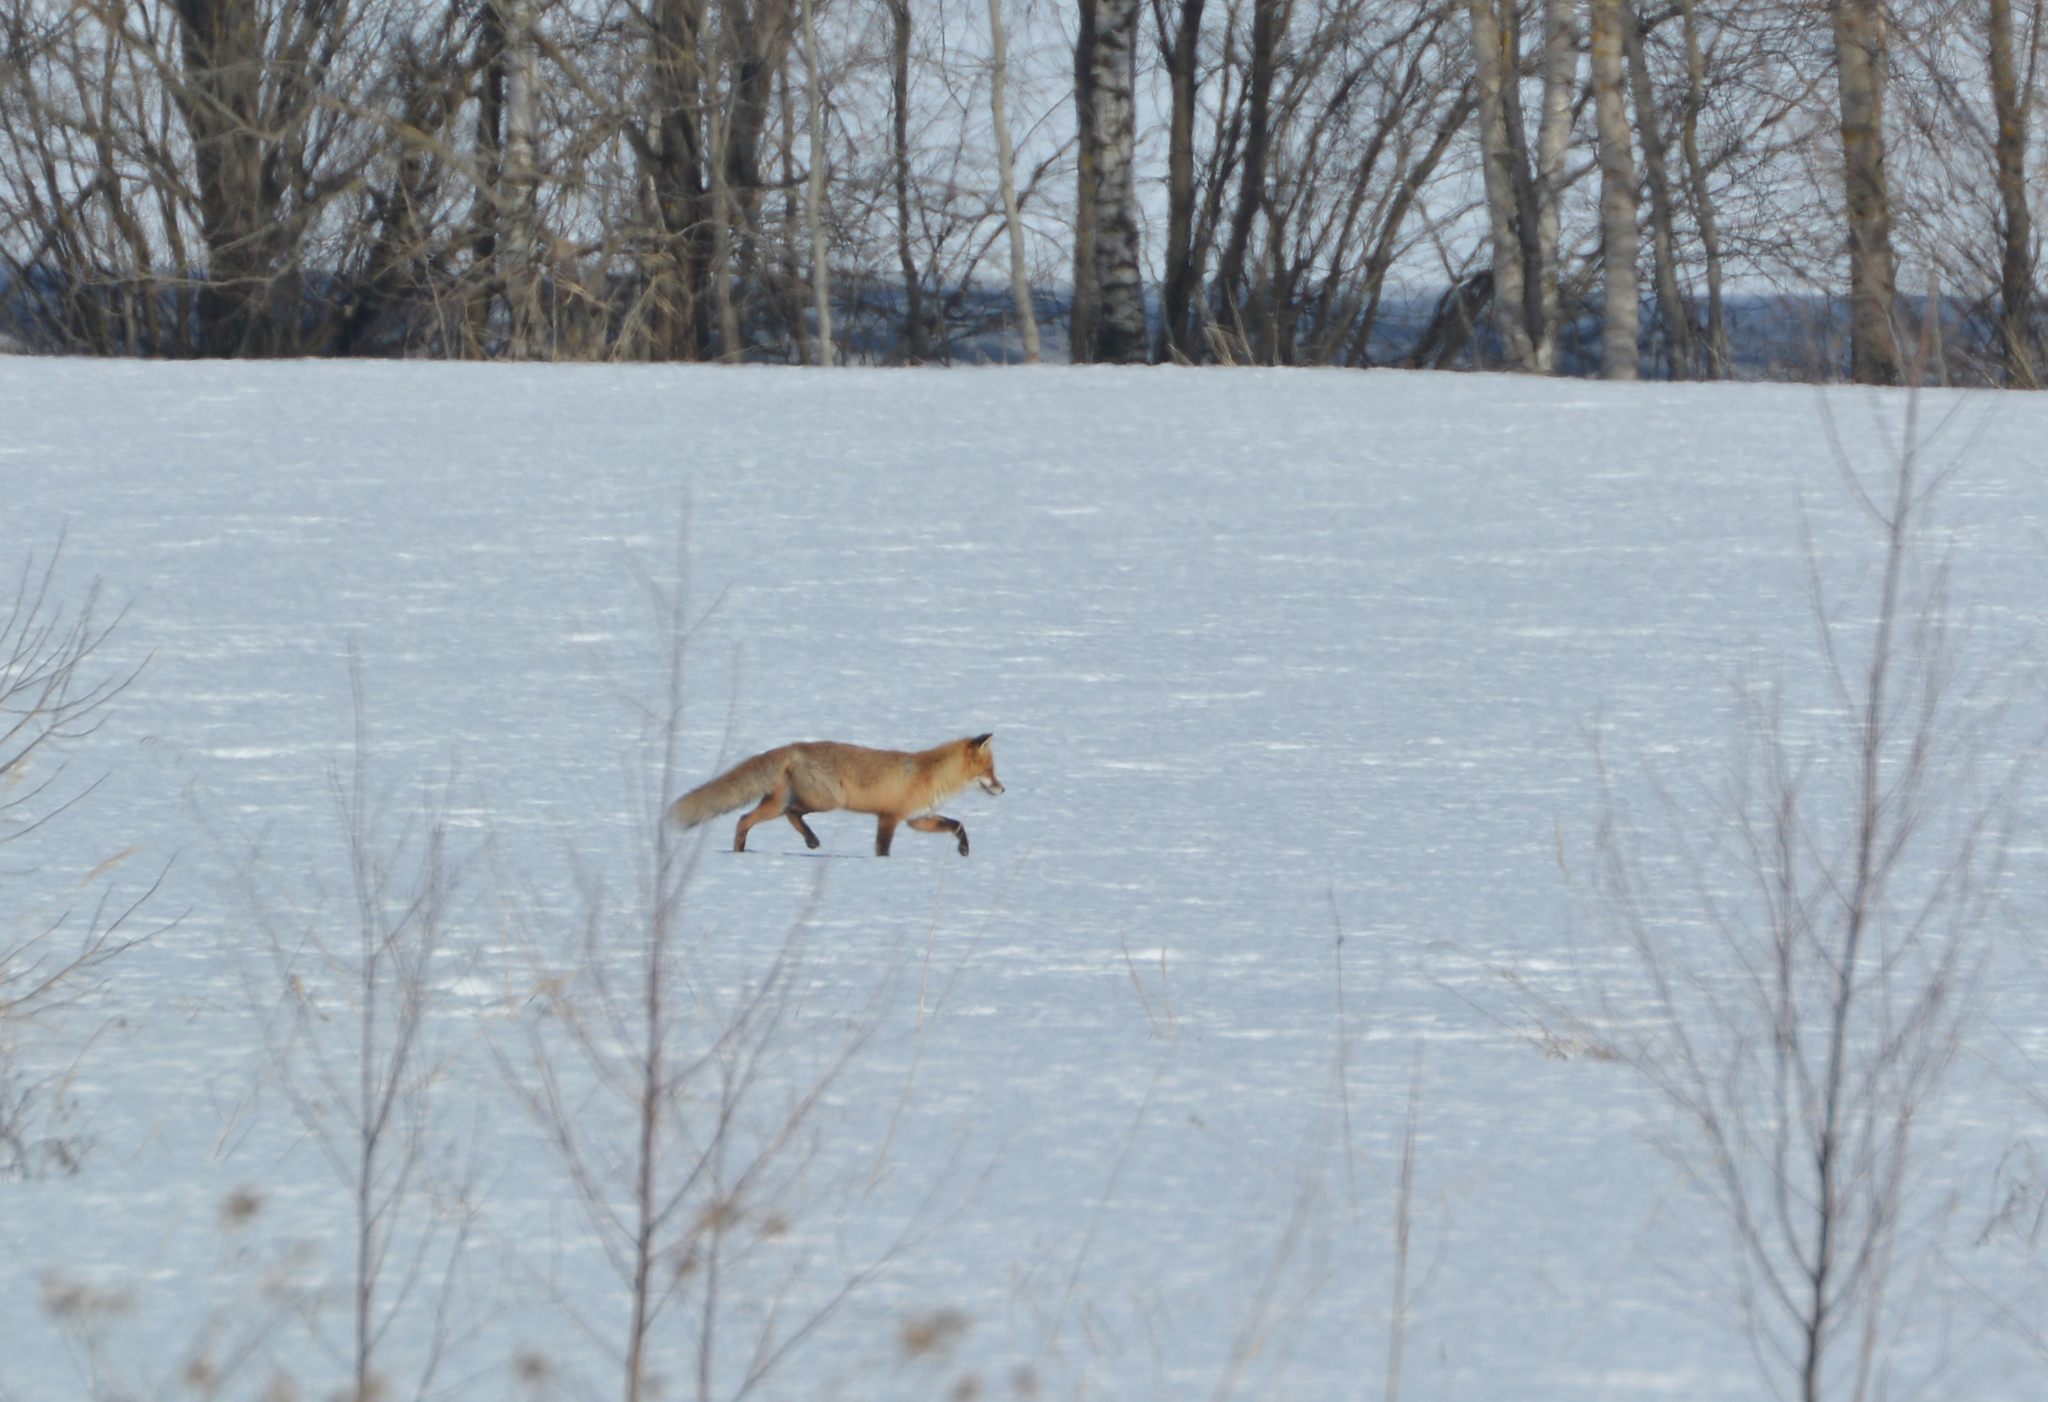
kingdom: Animalia
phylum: Chordata
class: Mammalia
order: Carnivora
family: Canidae
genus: Vulpes
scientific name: Vulpes vulpes
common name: Red fox
